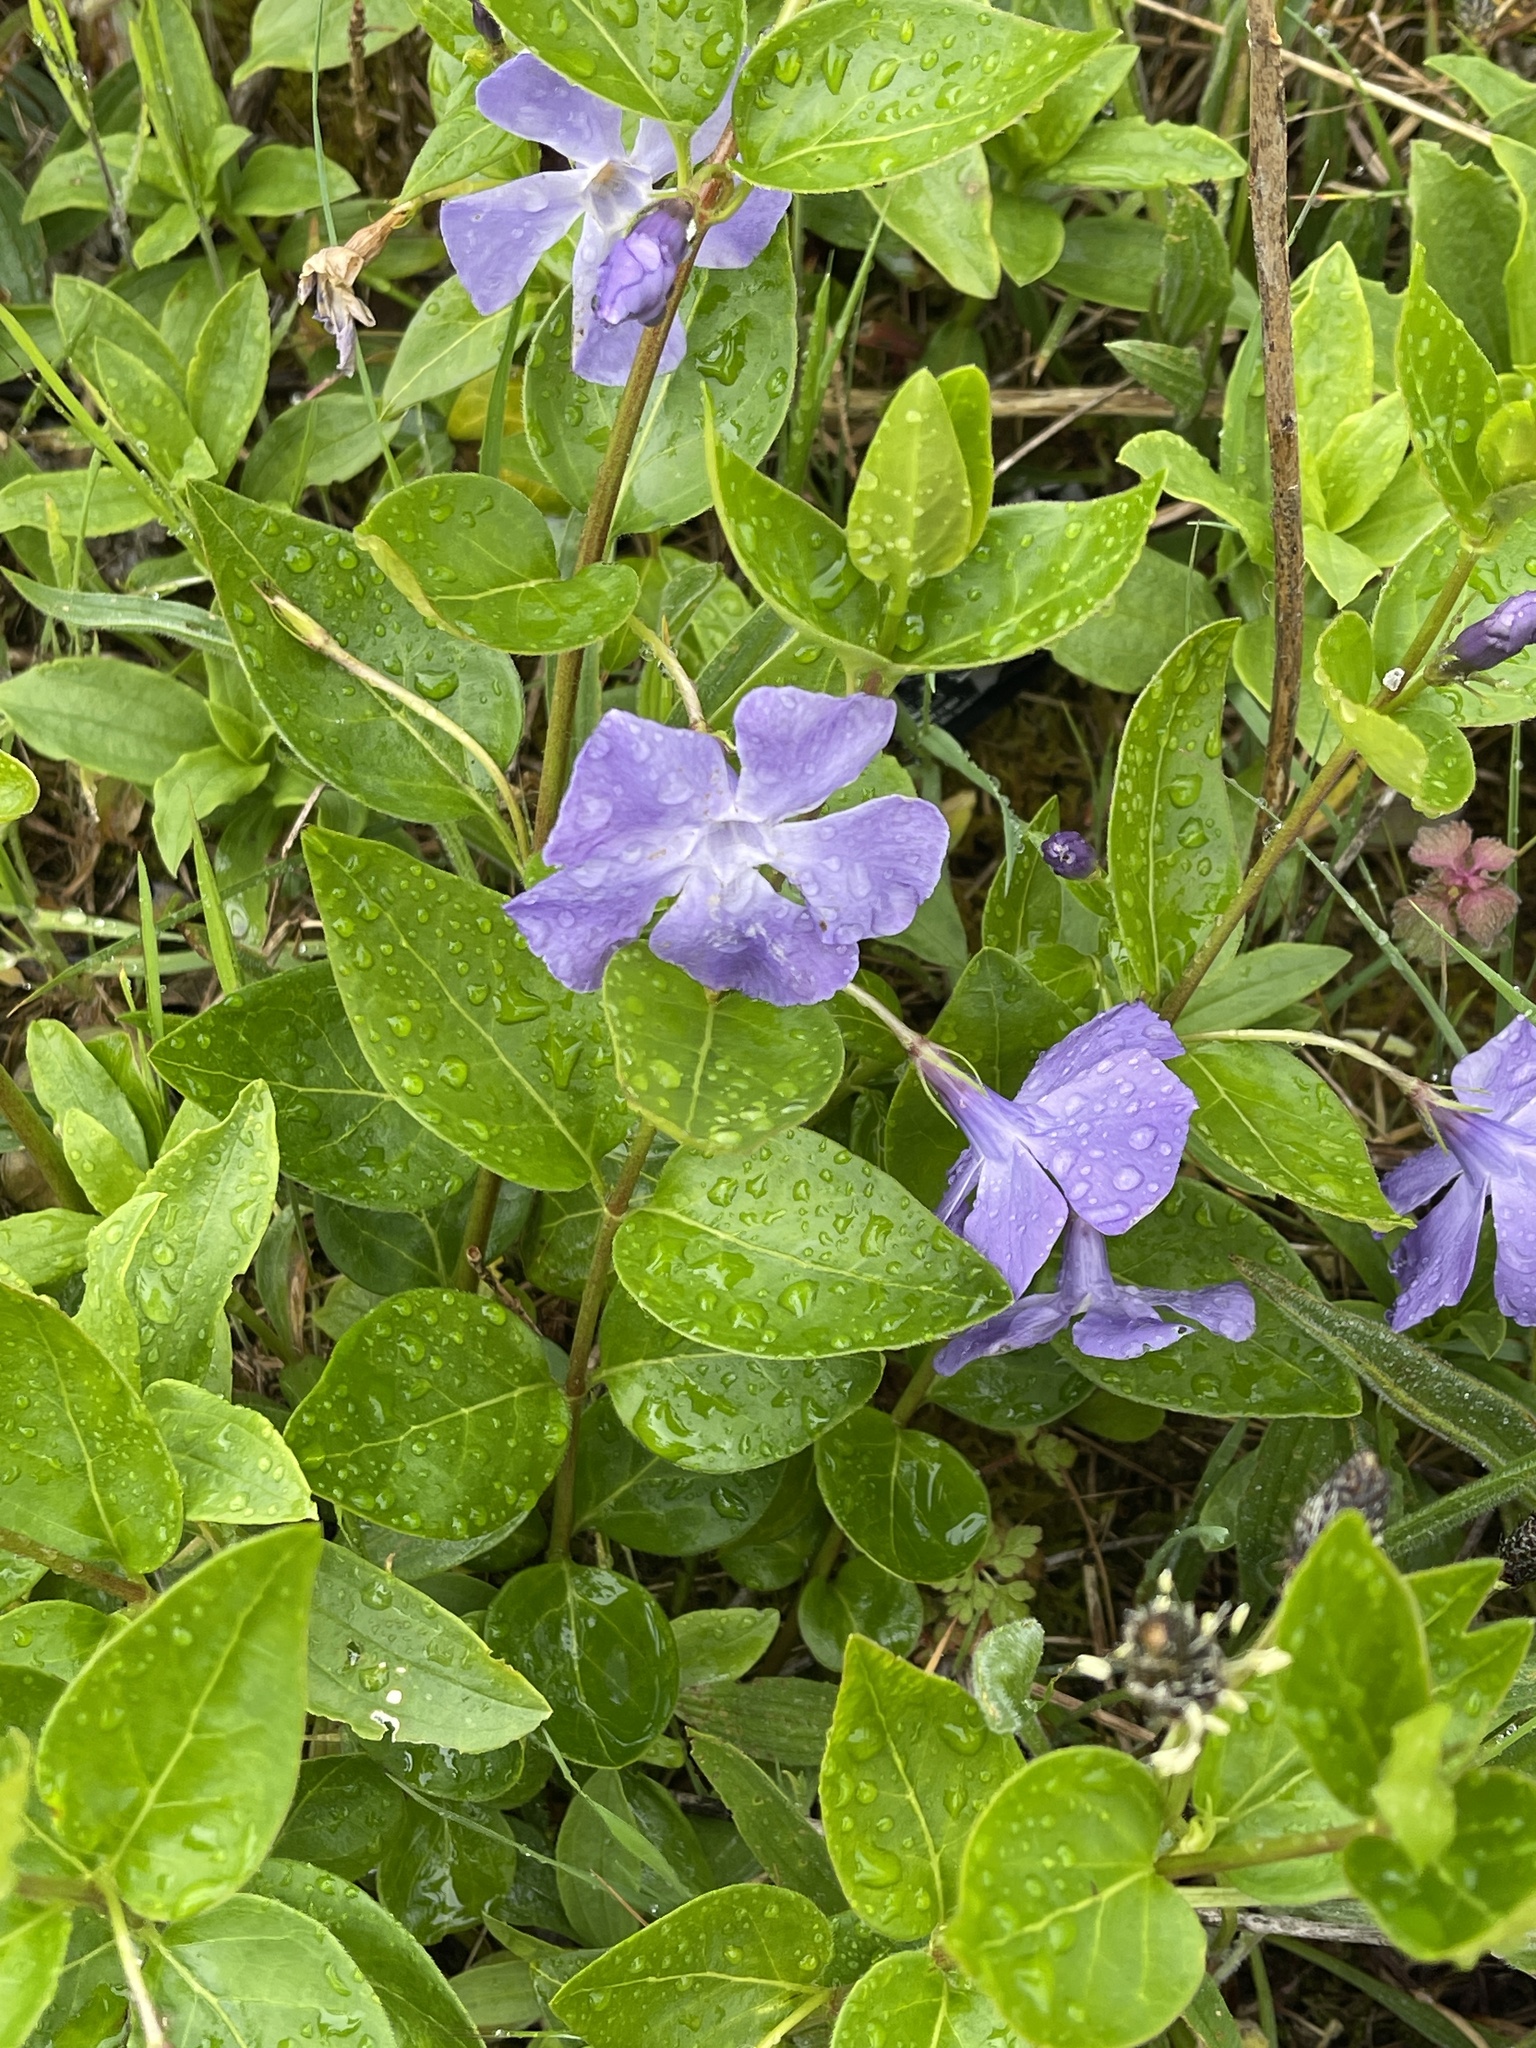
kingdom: Plantae
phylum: Tracheophyta
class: Magnoliopsida
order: Gentianales
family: Apocynaceae
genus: Vinca
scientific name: Vinca major
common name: Greater periwinkle
